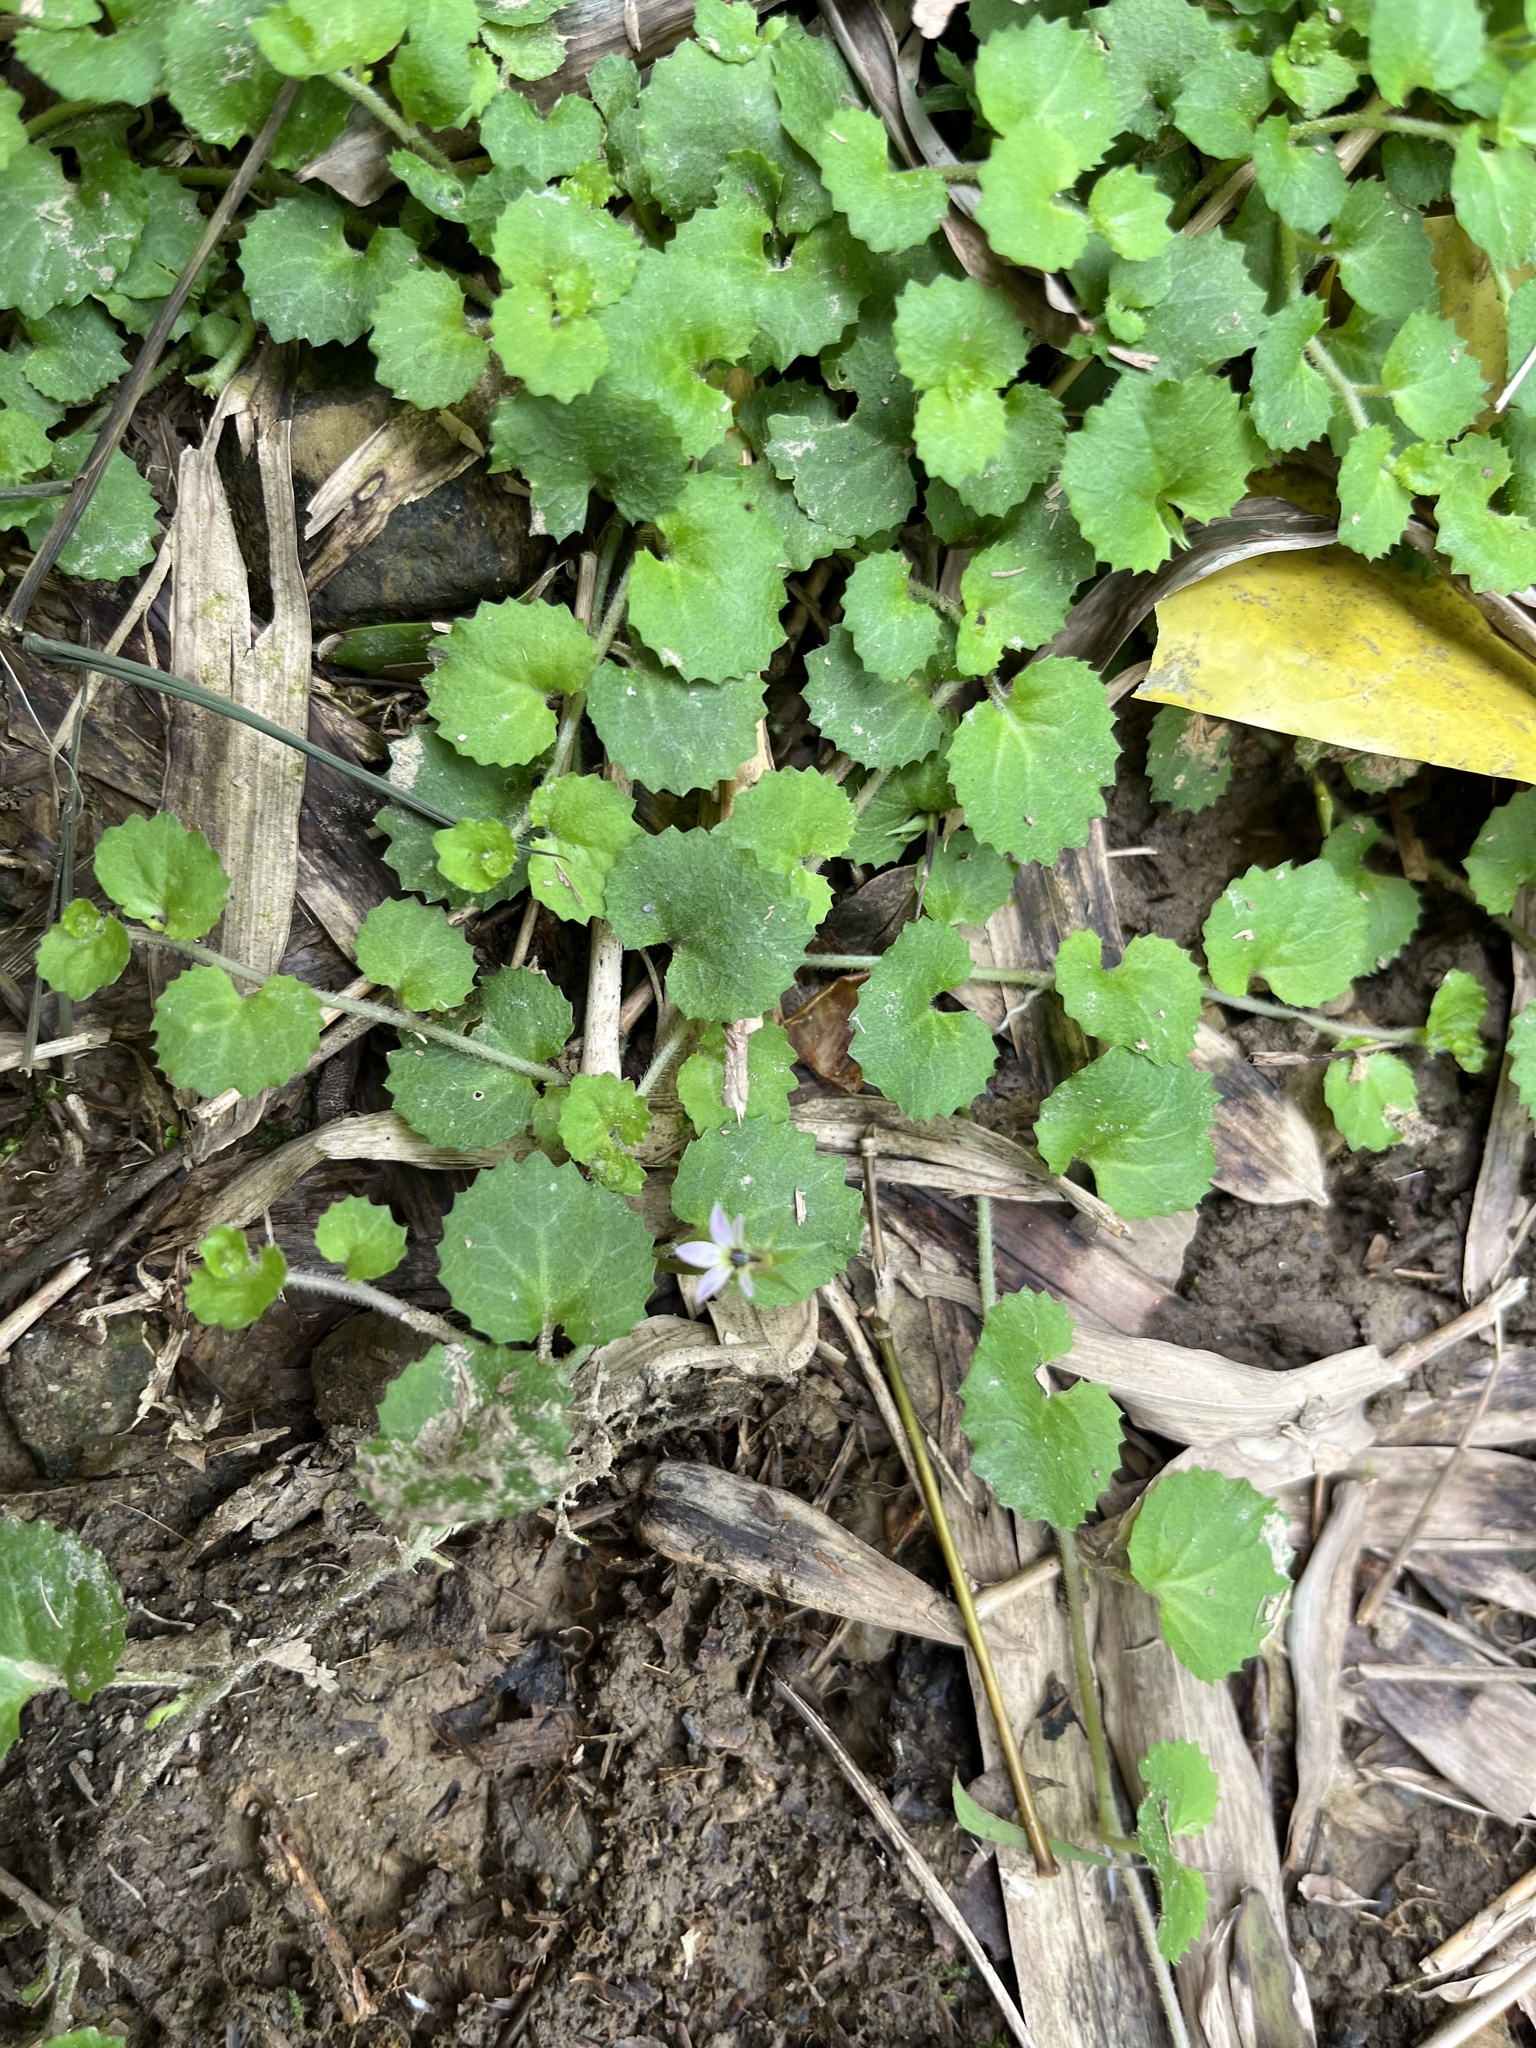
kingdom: Plantae
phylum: Tracheophyta
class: Magnoliopsida
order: Asterales
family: Campanulaceae
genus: Lobelia
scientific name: Lobelia nummularia
